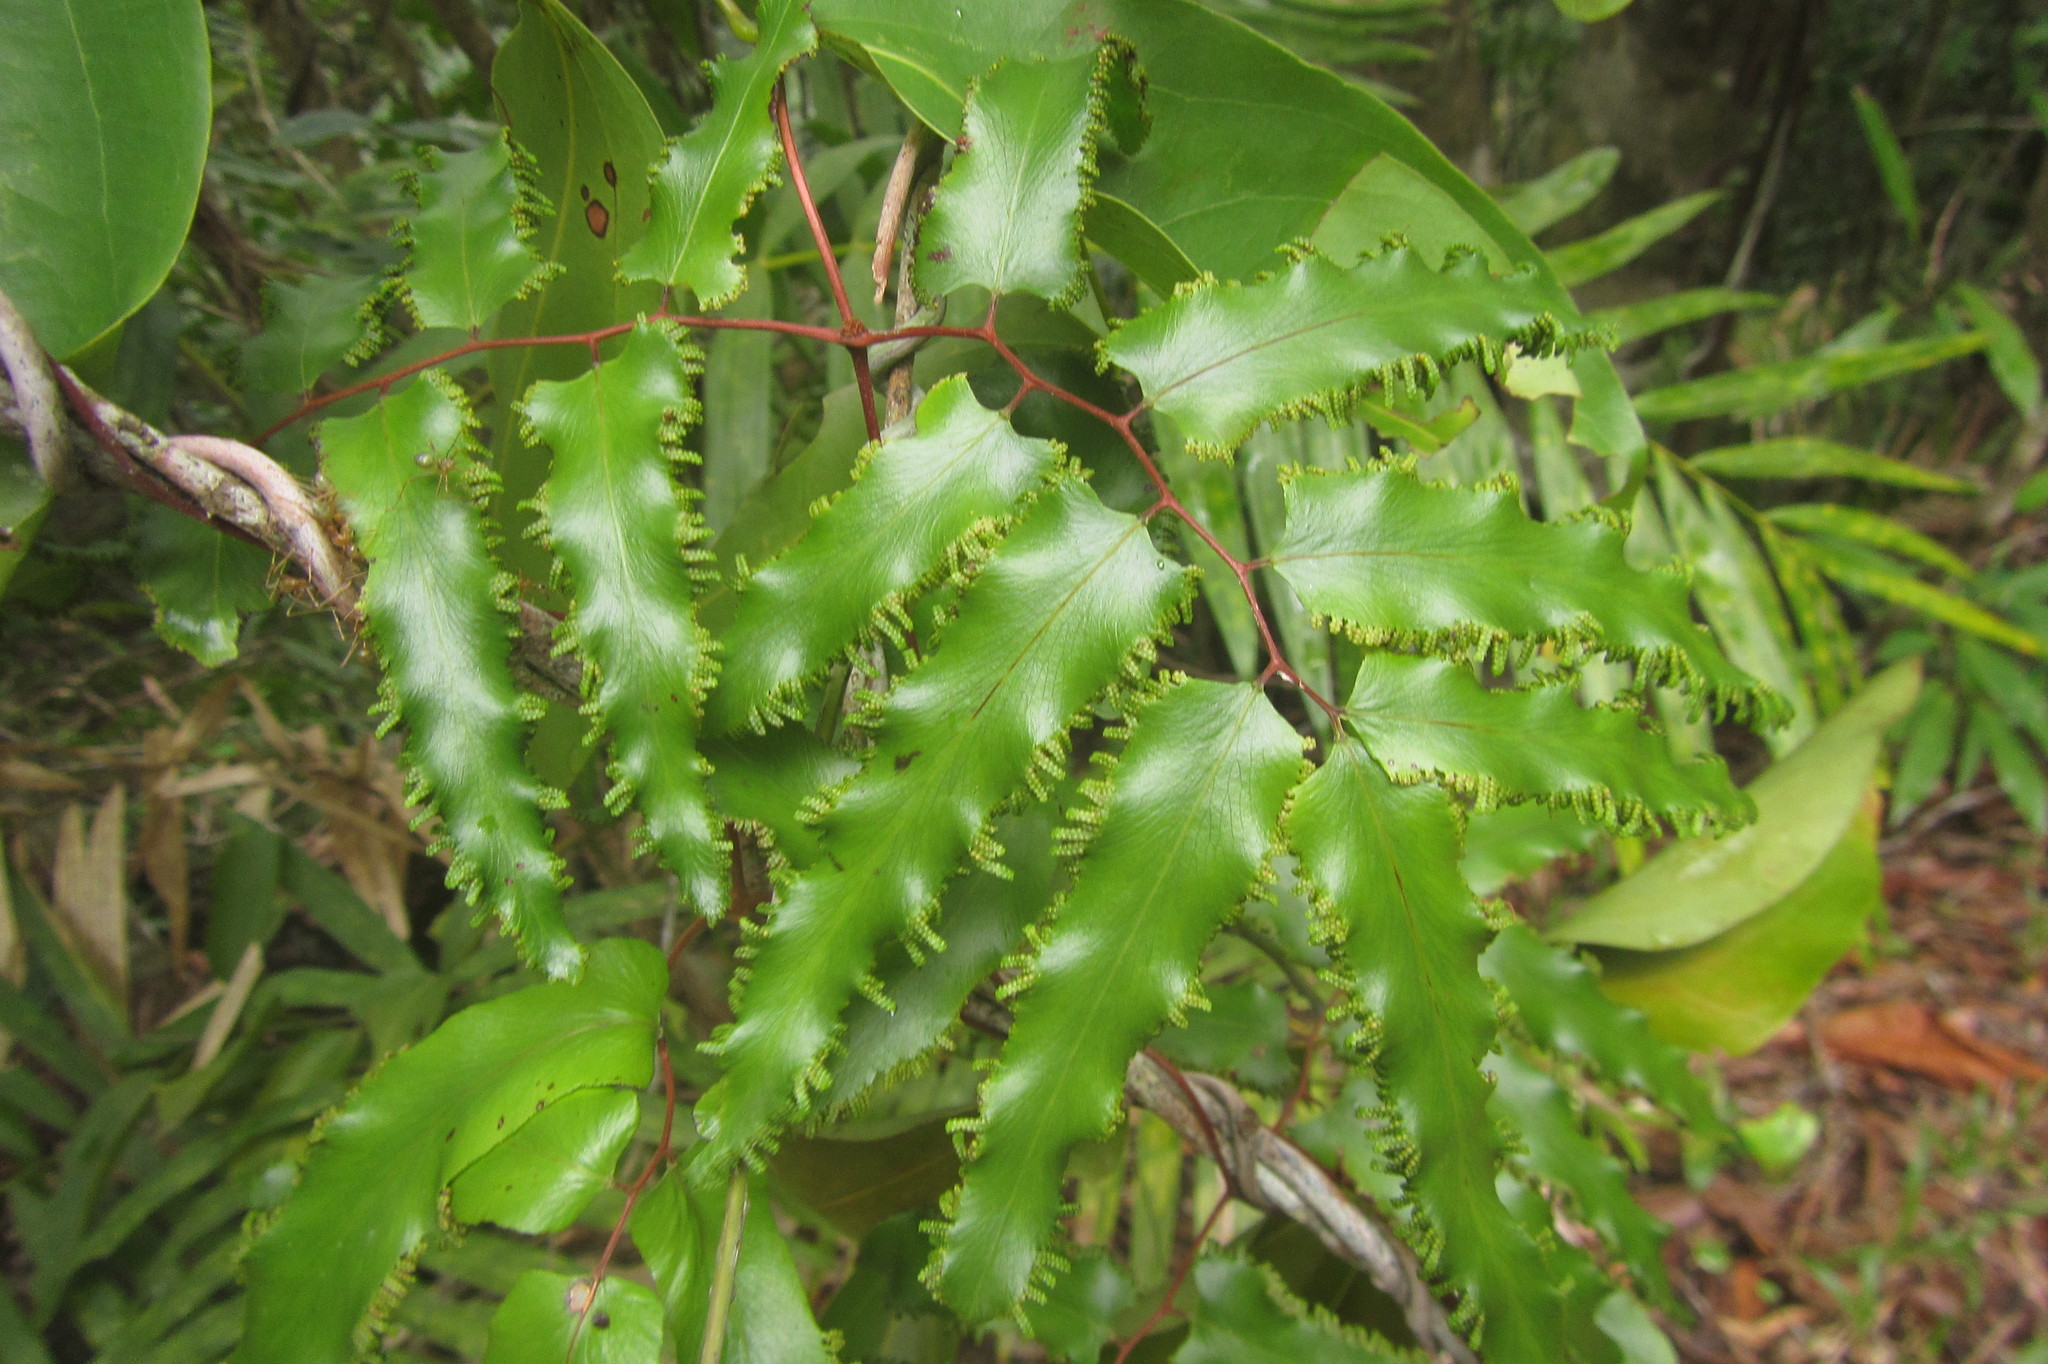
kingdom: Plantae
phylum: Tracheophyta
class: Polypodiopsida
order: Schizaeales
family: Lygodiaceae
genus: Lygodium
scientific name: Lygodium reticulatum
